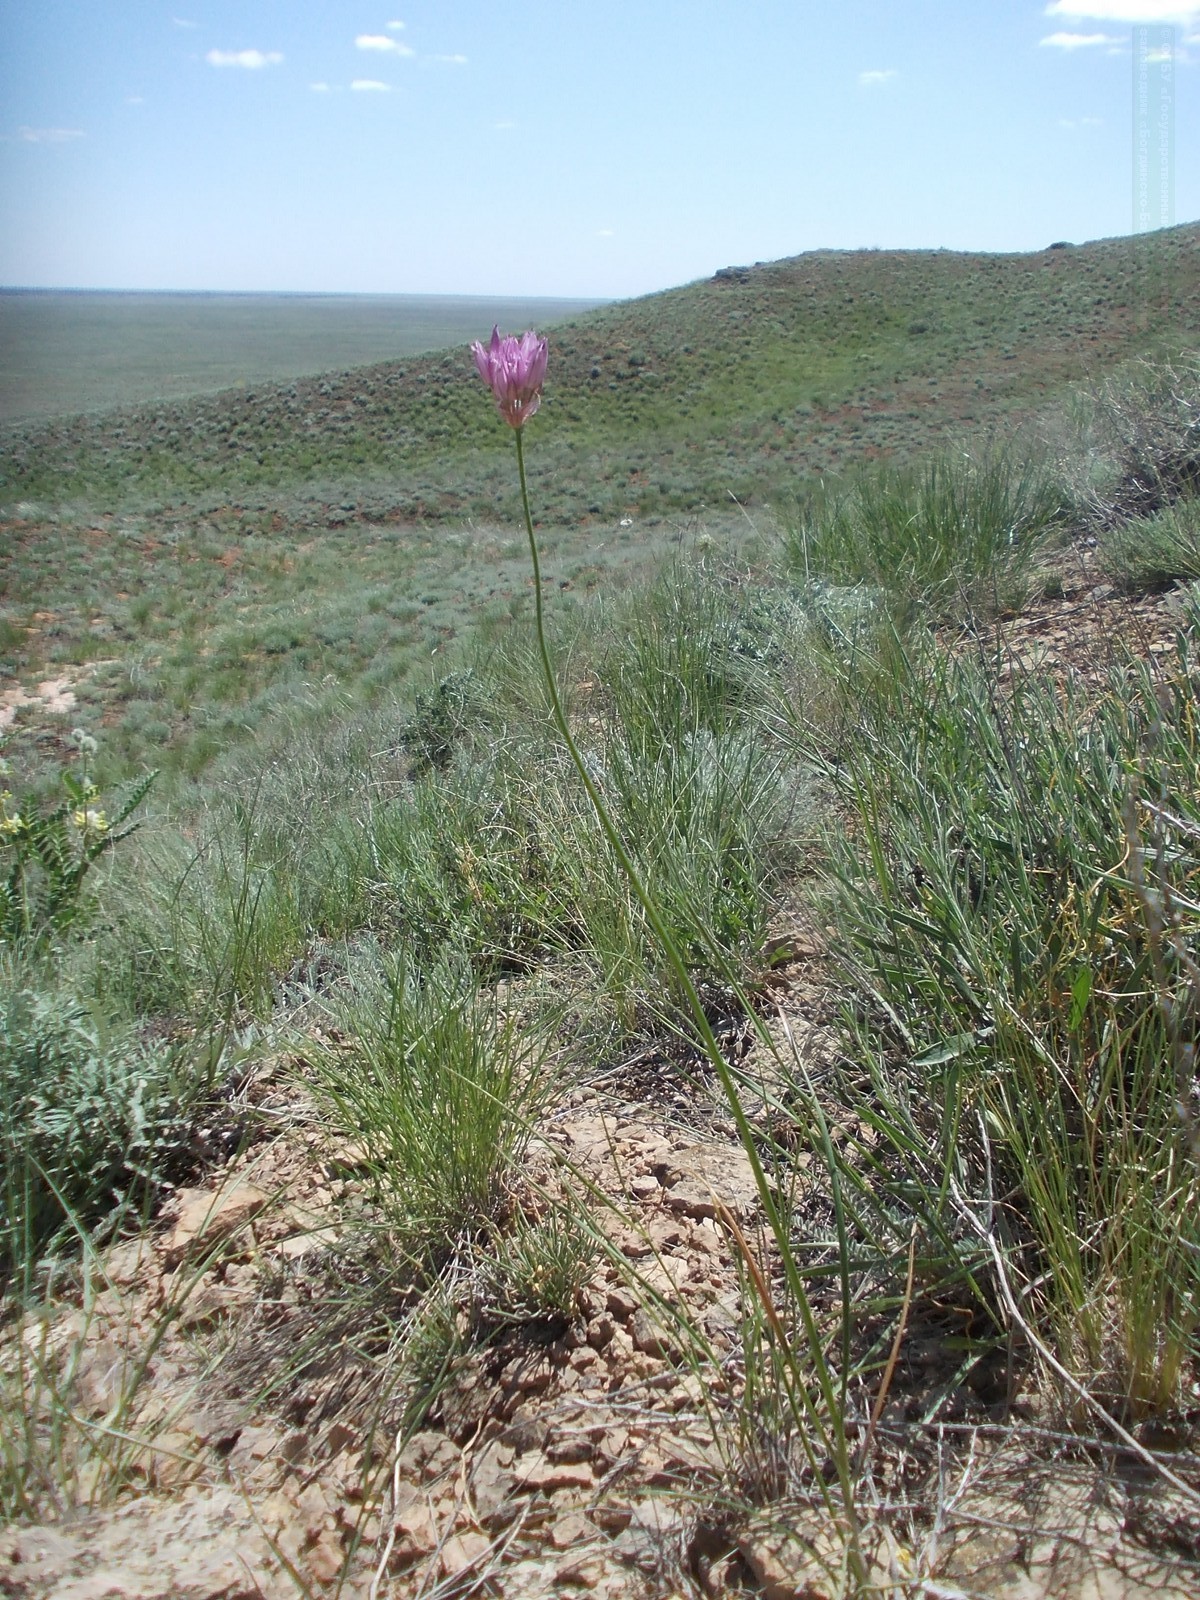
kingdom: Plantae
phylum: Tracheophyta
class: Liliopsida
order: Asparagales
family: Amaryllidaceae
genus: Allium
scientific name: Allium inderiense
